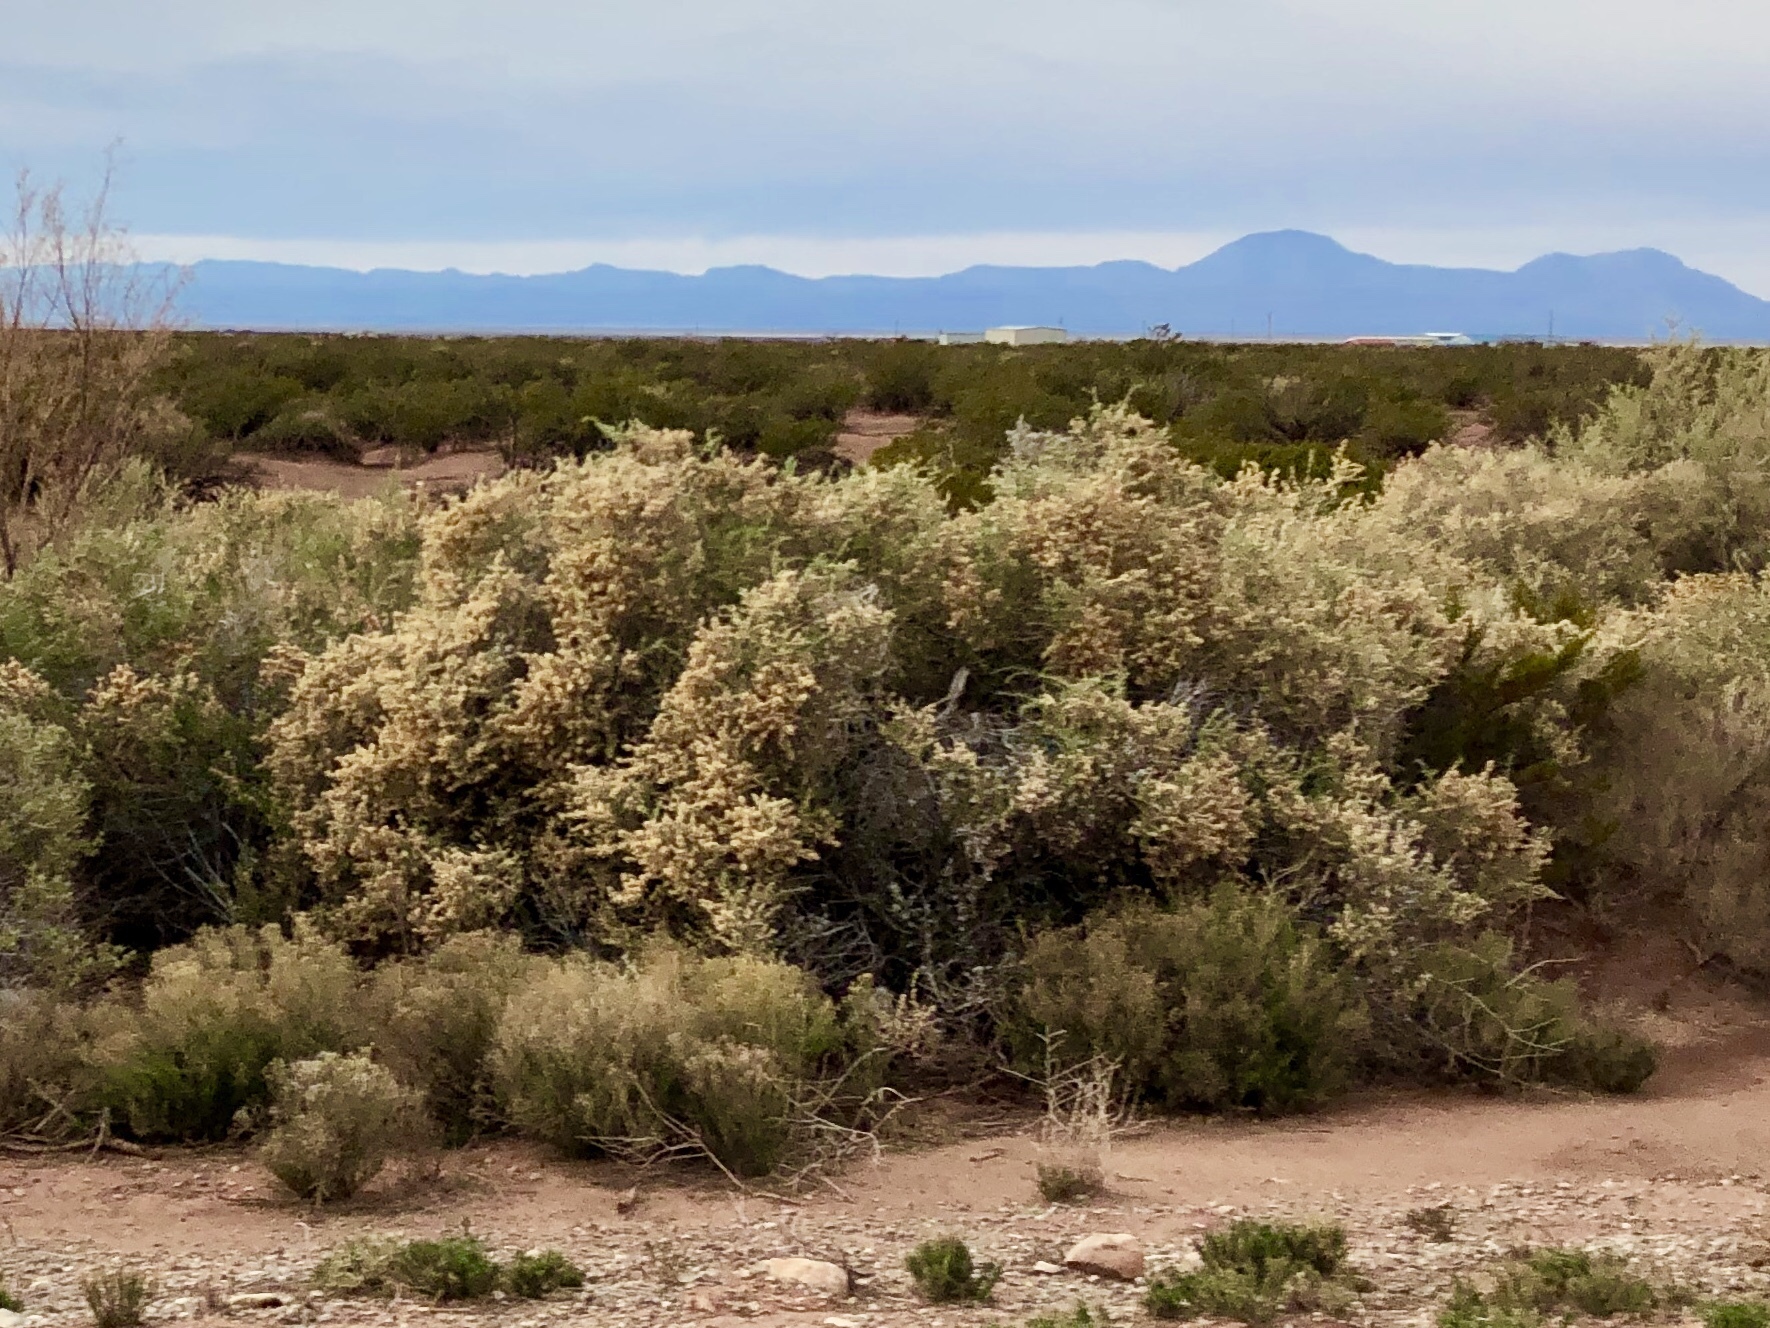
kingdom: Plantae
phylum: Tracheophyta
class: Magnoliopsida
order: Caryophyllales
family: Amaranthaceae
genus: Atriplex
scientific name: Atriplex canescens
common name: Four-wing saltbush
